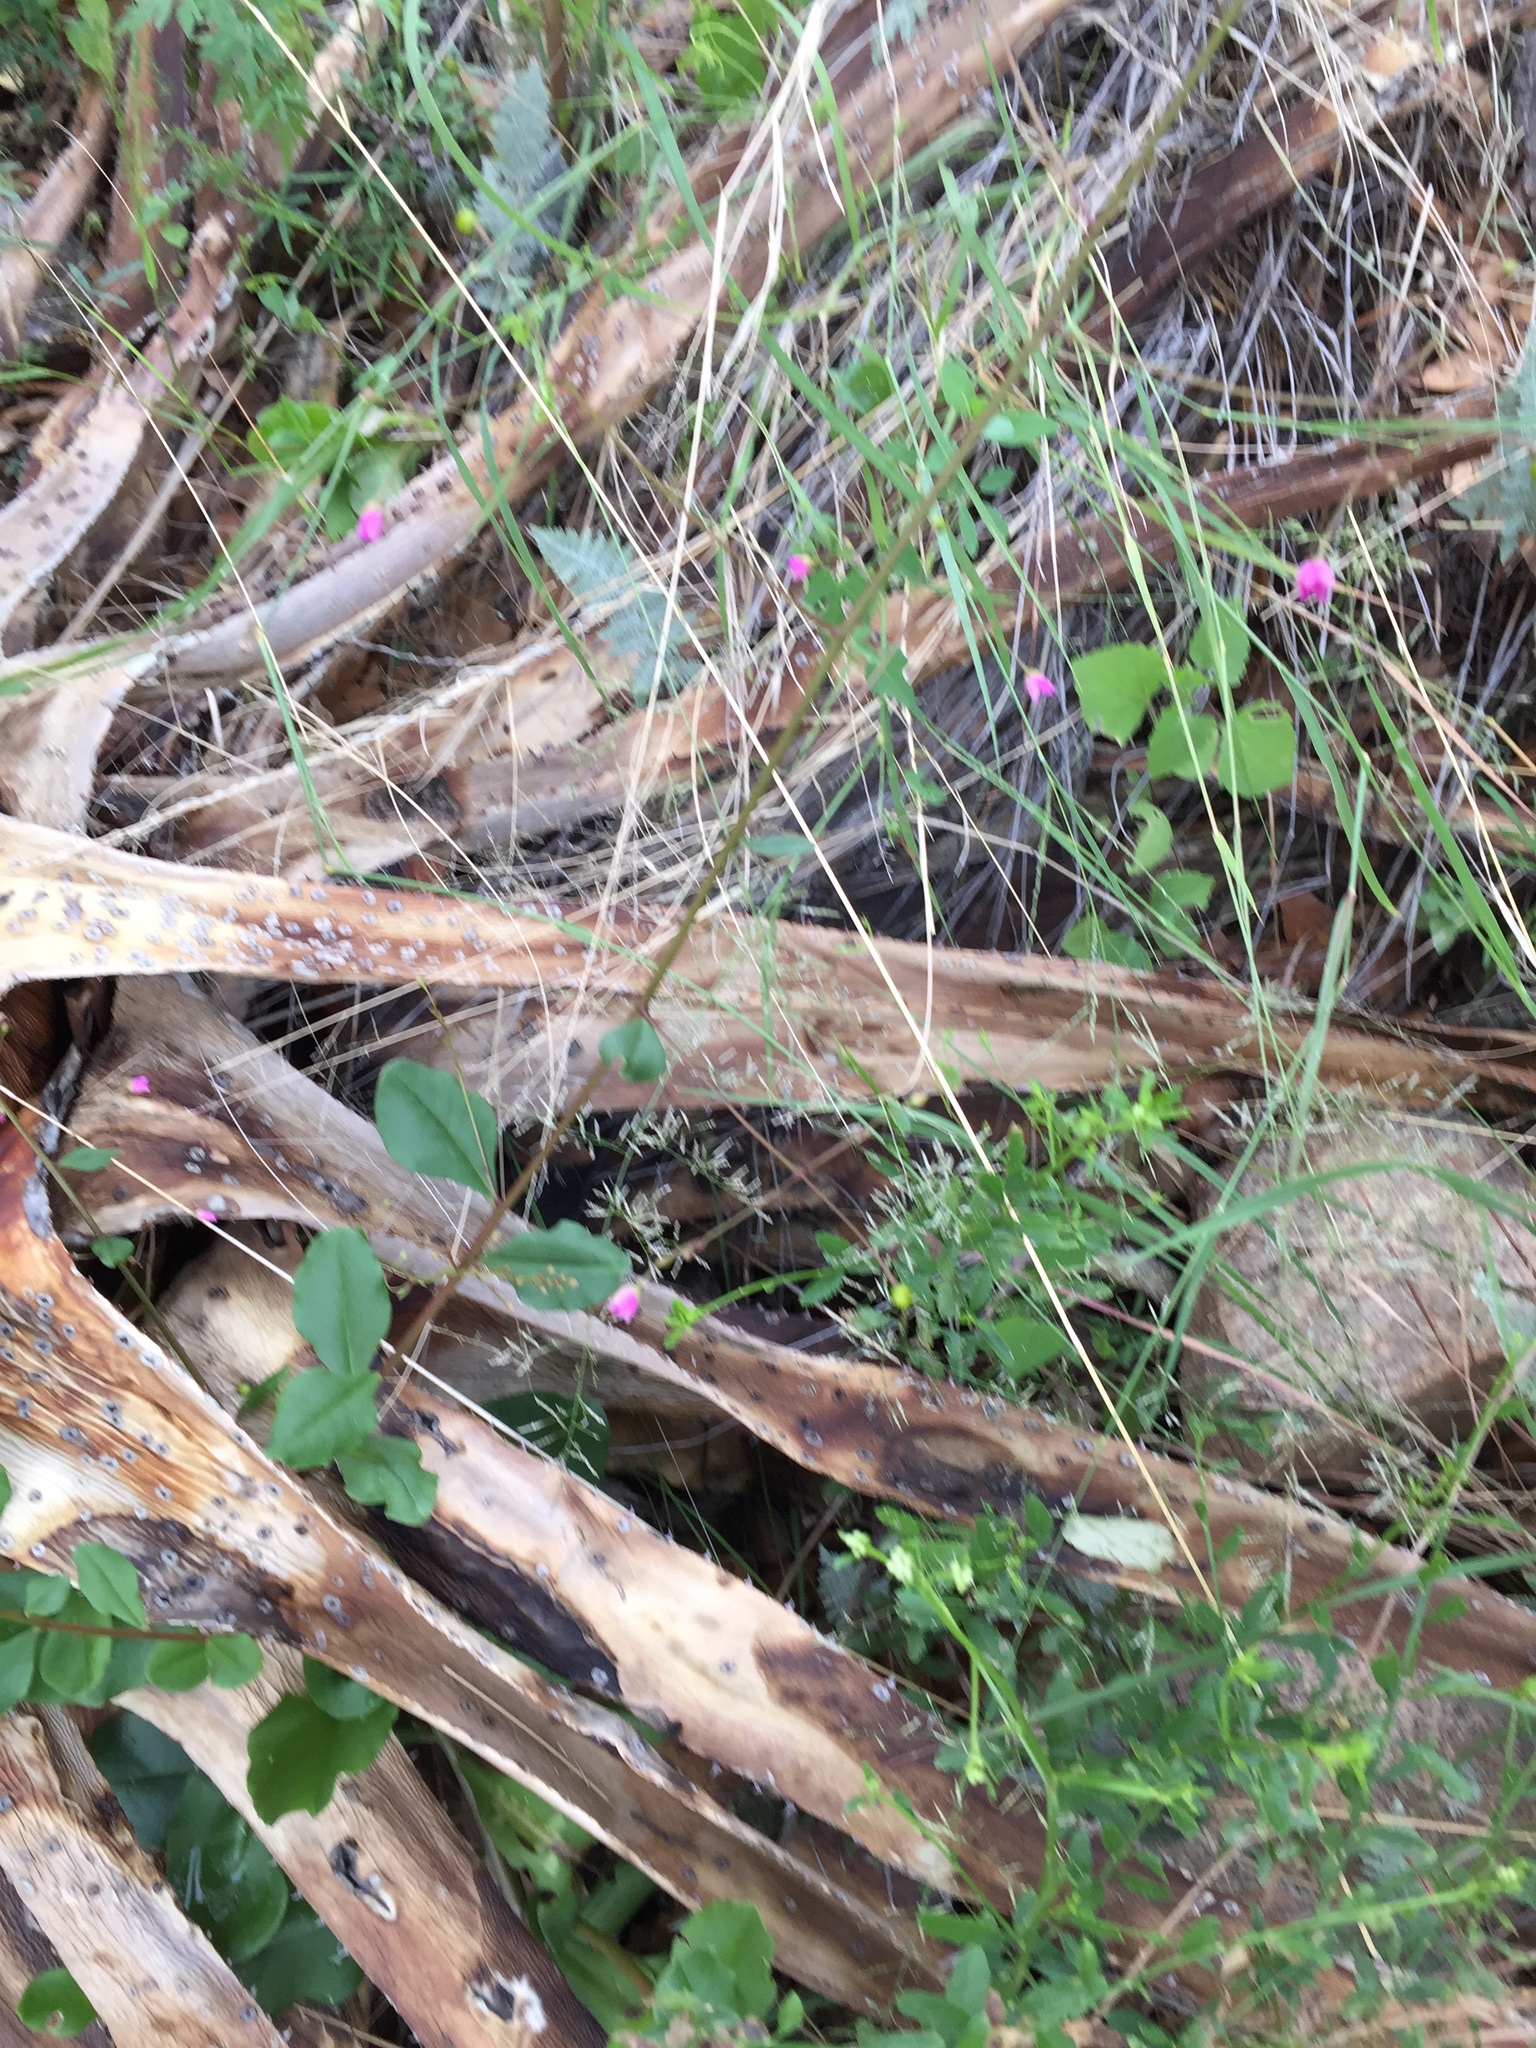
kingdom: Plantae
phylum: Tracheophyta
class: Magnoliopsida
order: Caryophyllales
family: Talinaceae
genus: Talinum
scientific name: Talinum paniculatum
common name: Jewels of opar
